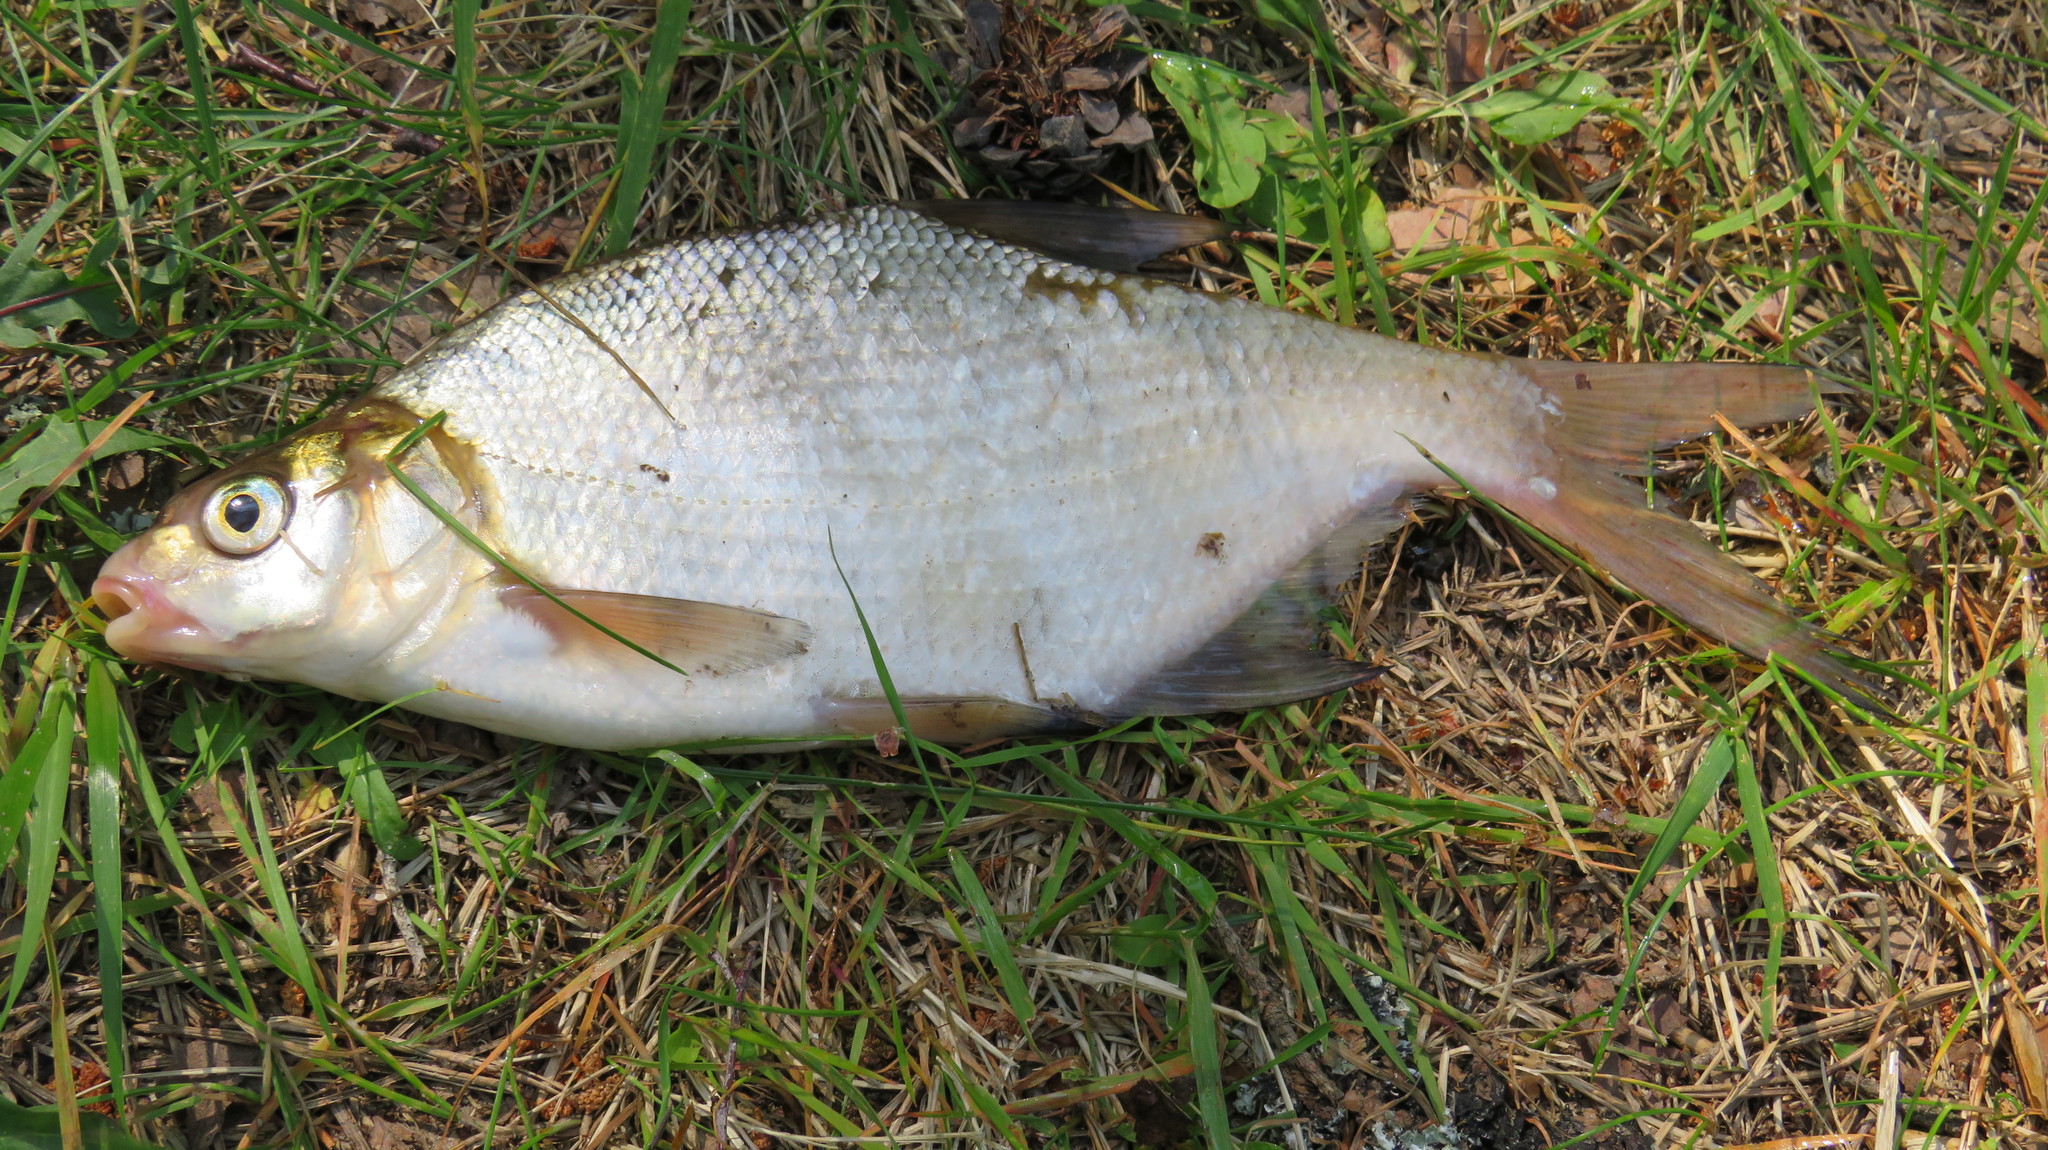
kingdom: Animalia
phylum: Chordata
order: Cypriniformes
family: Cyprinidae
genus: Abramis
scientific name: Abramis brama
